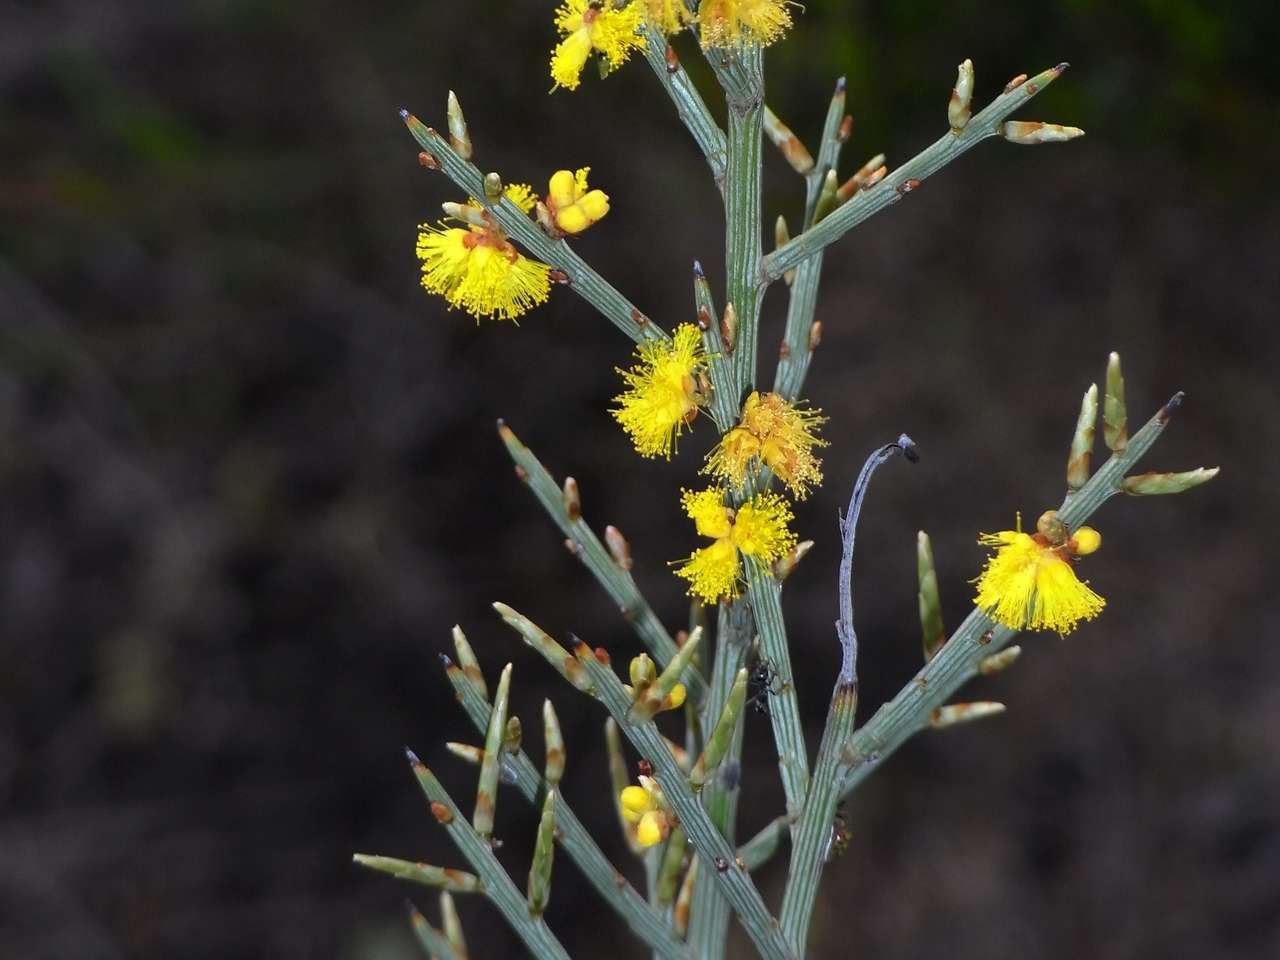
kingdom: Plantae
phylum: Tracheophyta
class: Magnoliopsida
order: Fabales
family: Fabaceae
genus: Acacia
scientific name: Acacia spinescens
